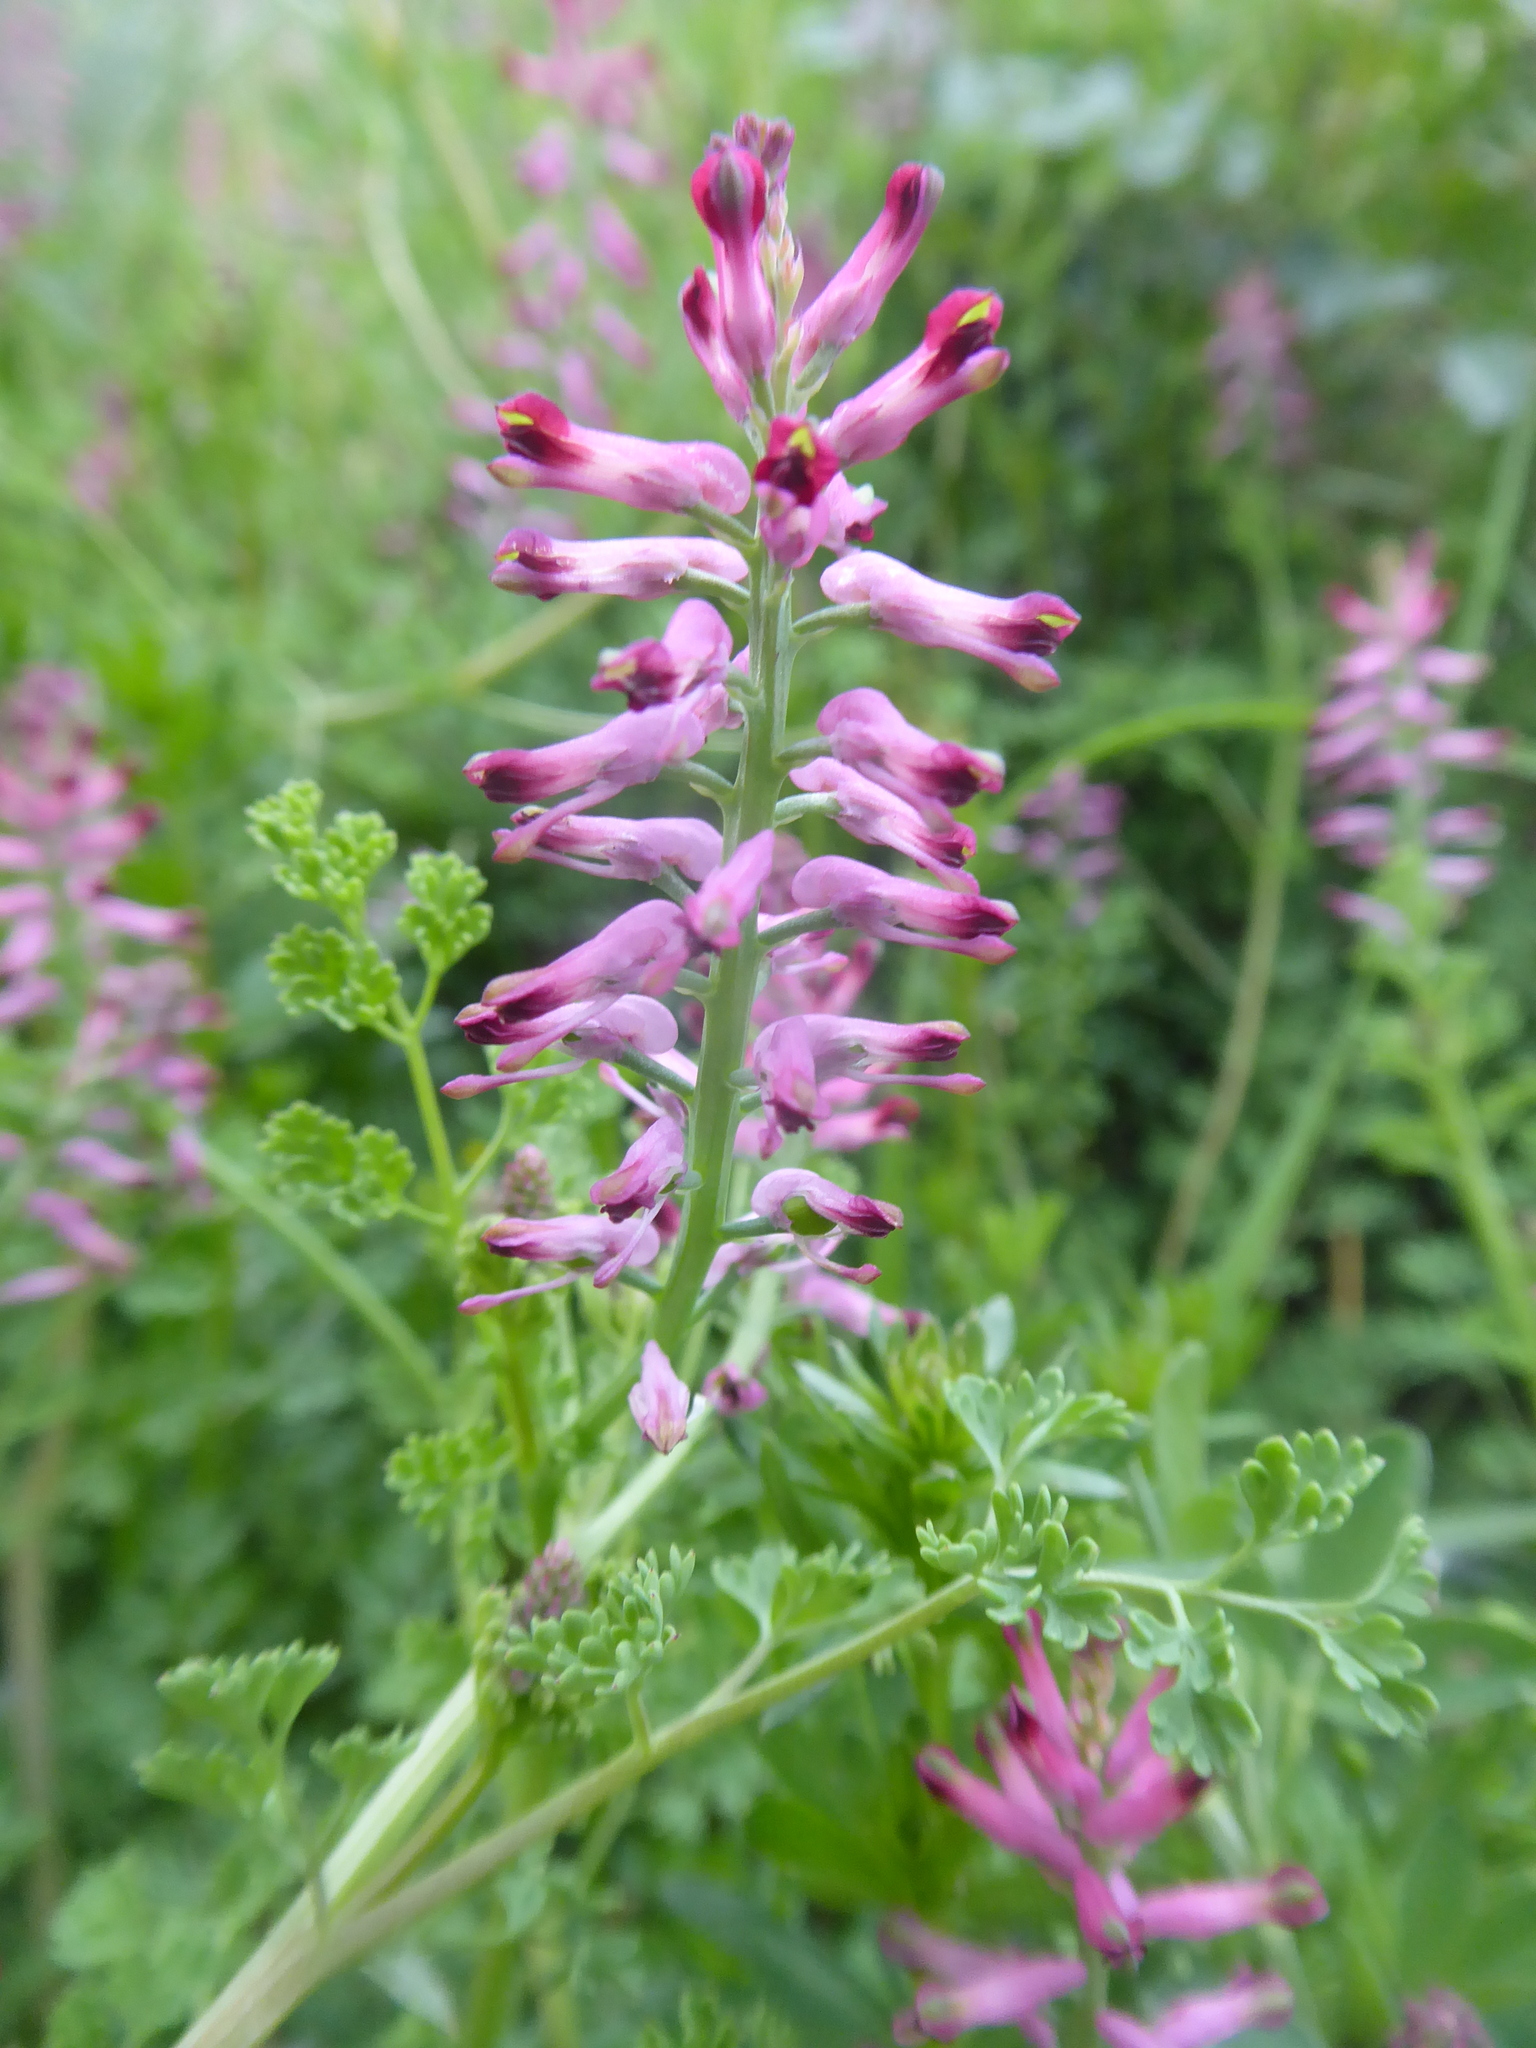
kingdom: Plantae
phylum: Tracheophyta
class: Magnoliopsida
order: Ranunculales
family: Papaveraceae
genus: Fumaria
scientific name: Fumaria officinalis
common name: Common fumitory
